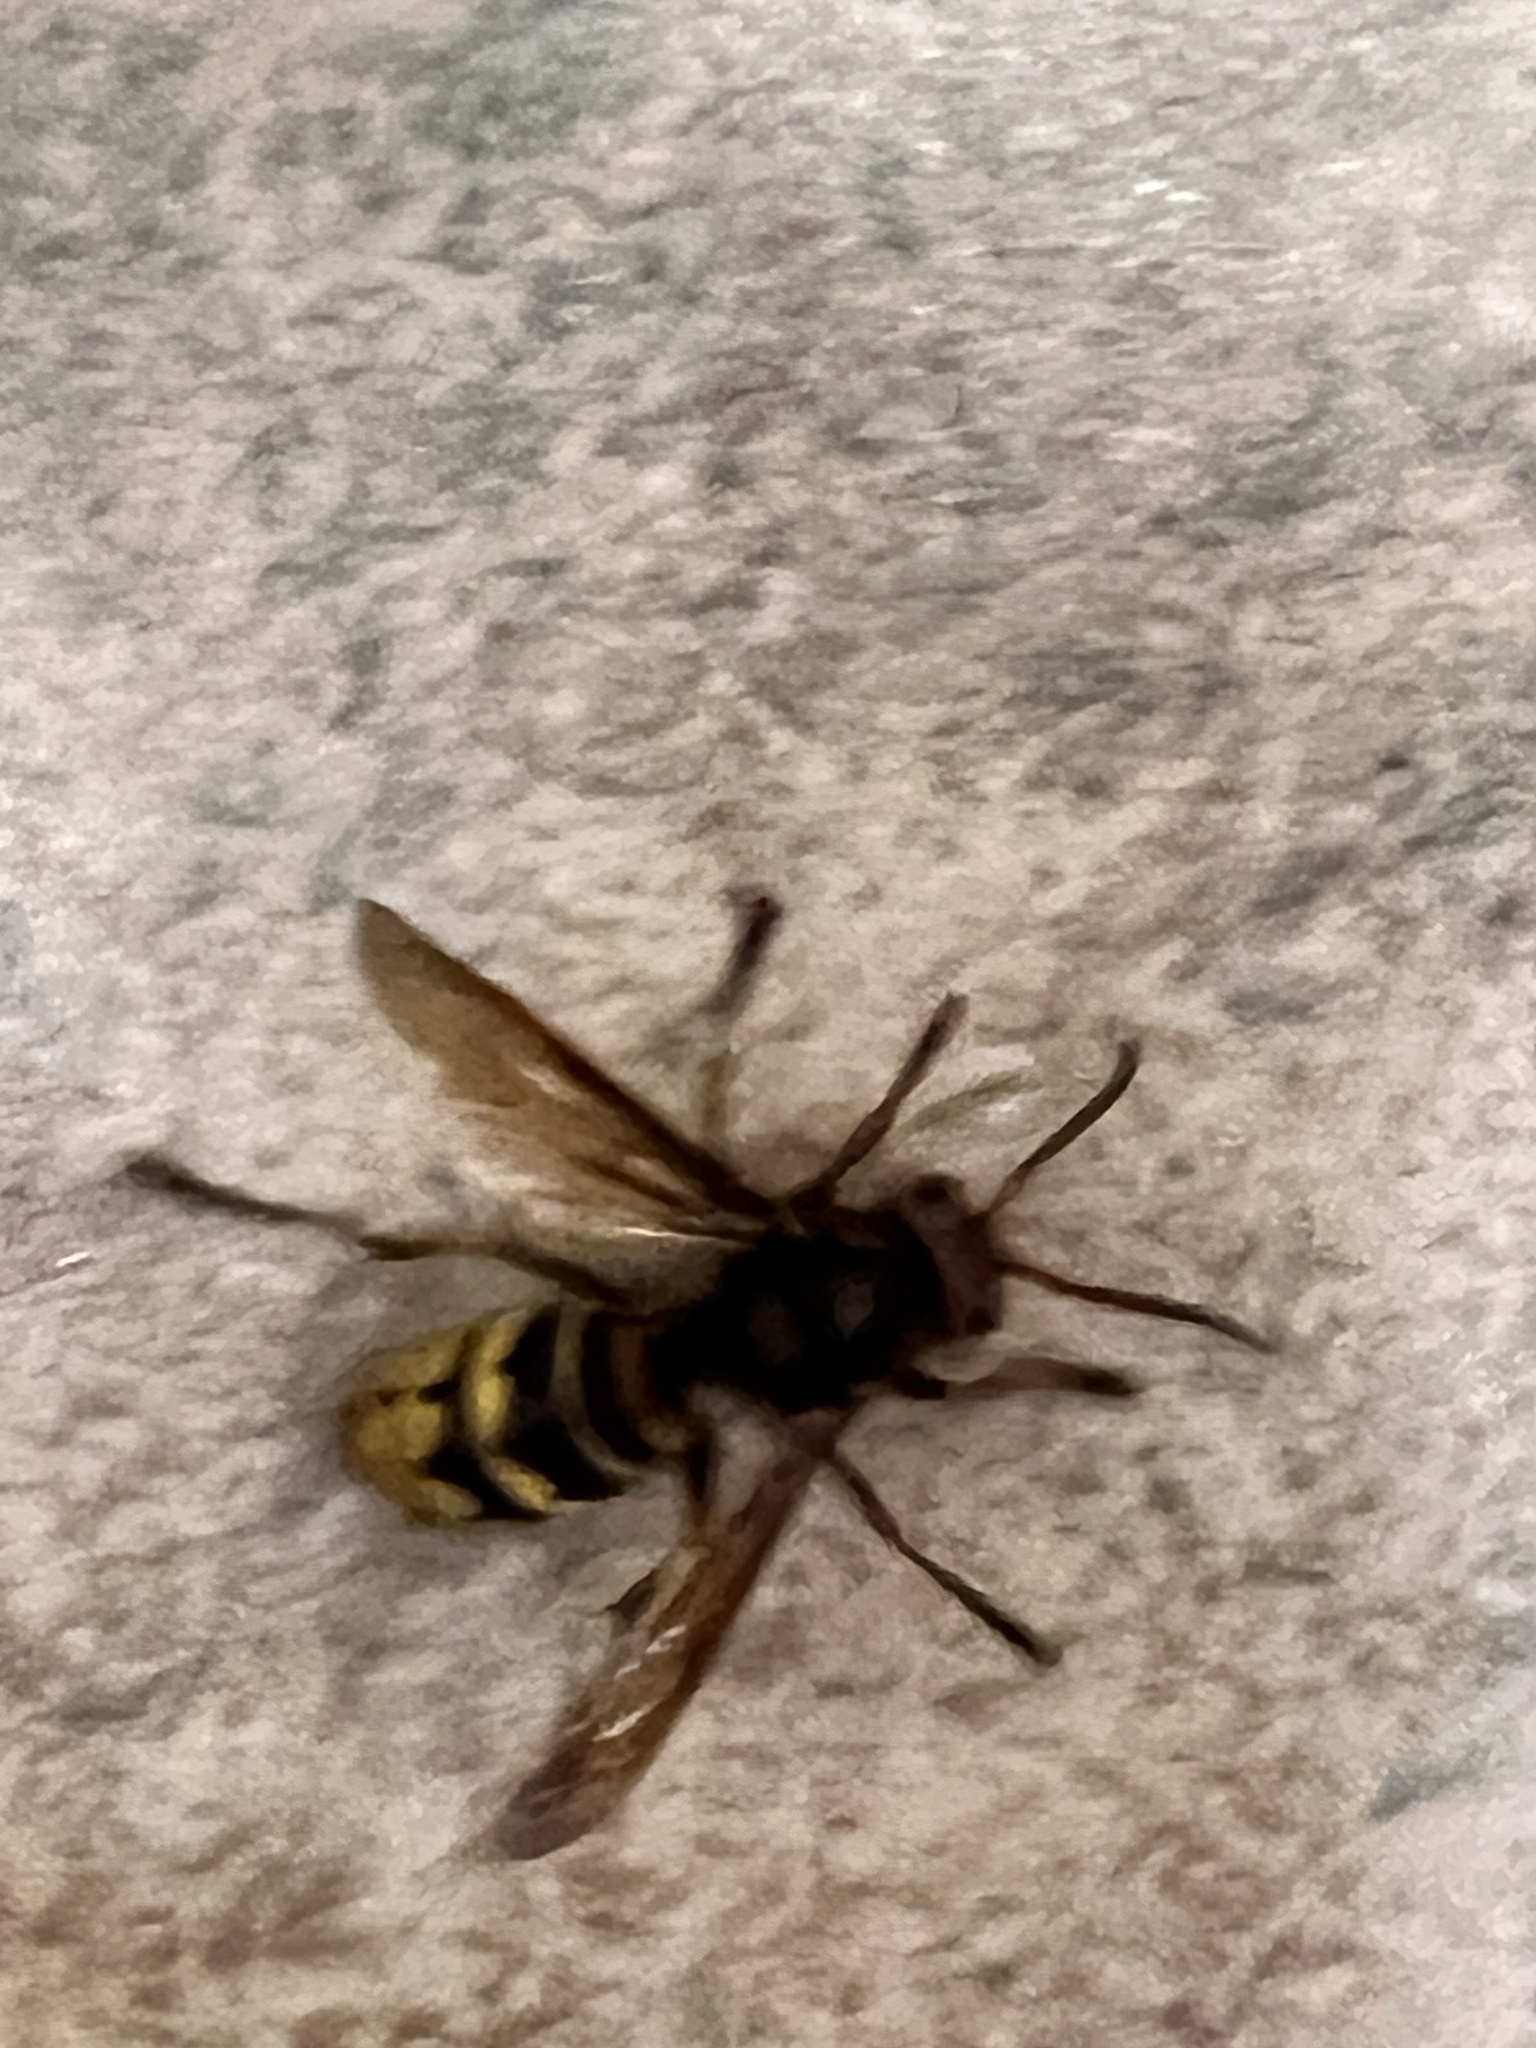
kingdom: Animalia
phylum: Arthropoda
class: Insecta
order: Hymenoptera
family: Vespidae
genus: Vespa
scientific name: Vespa crabro
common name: Hornet
